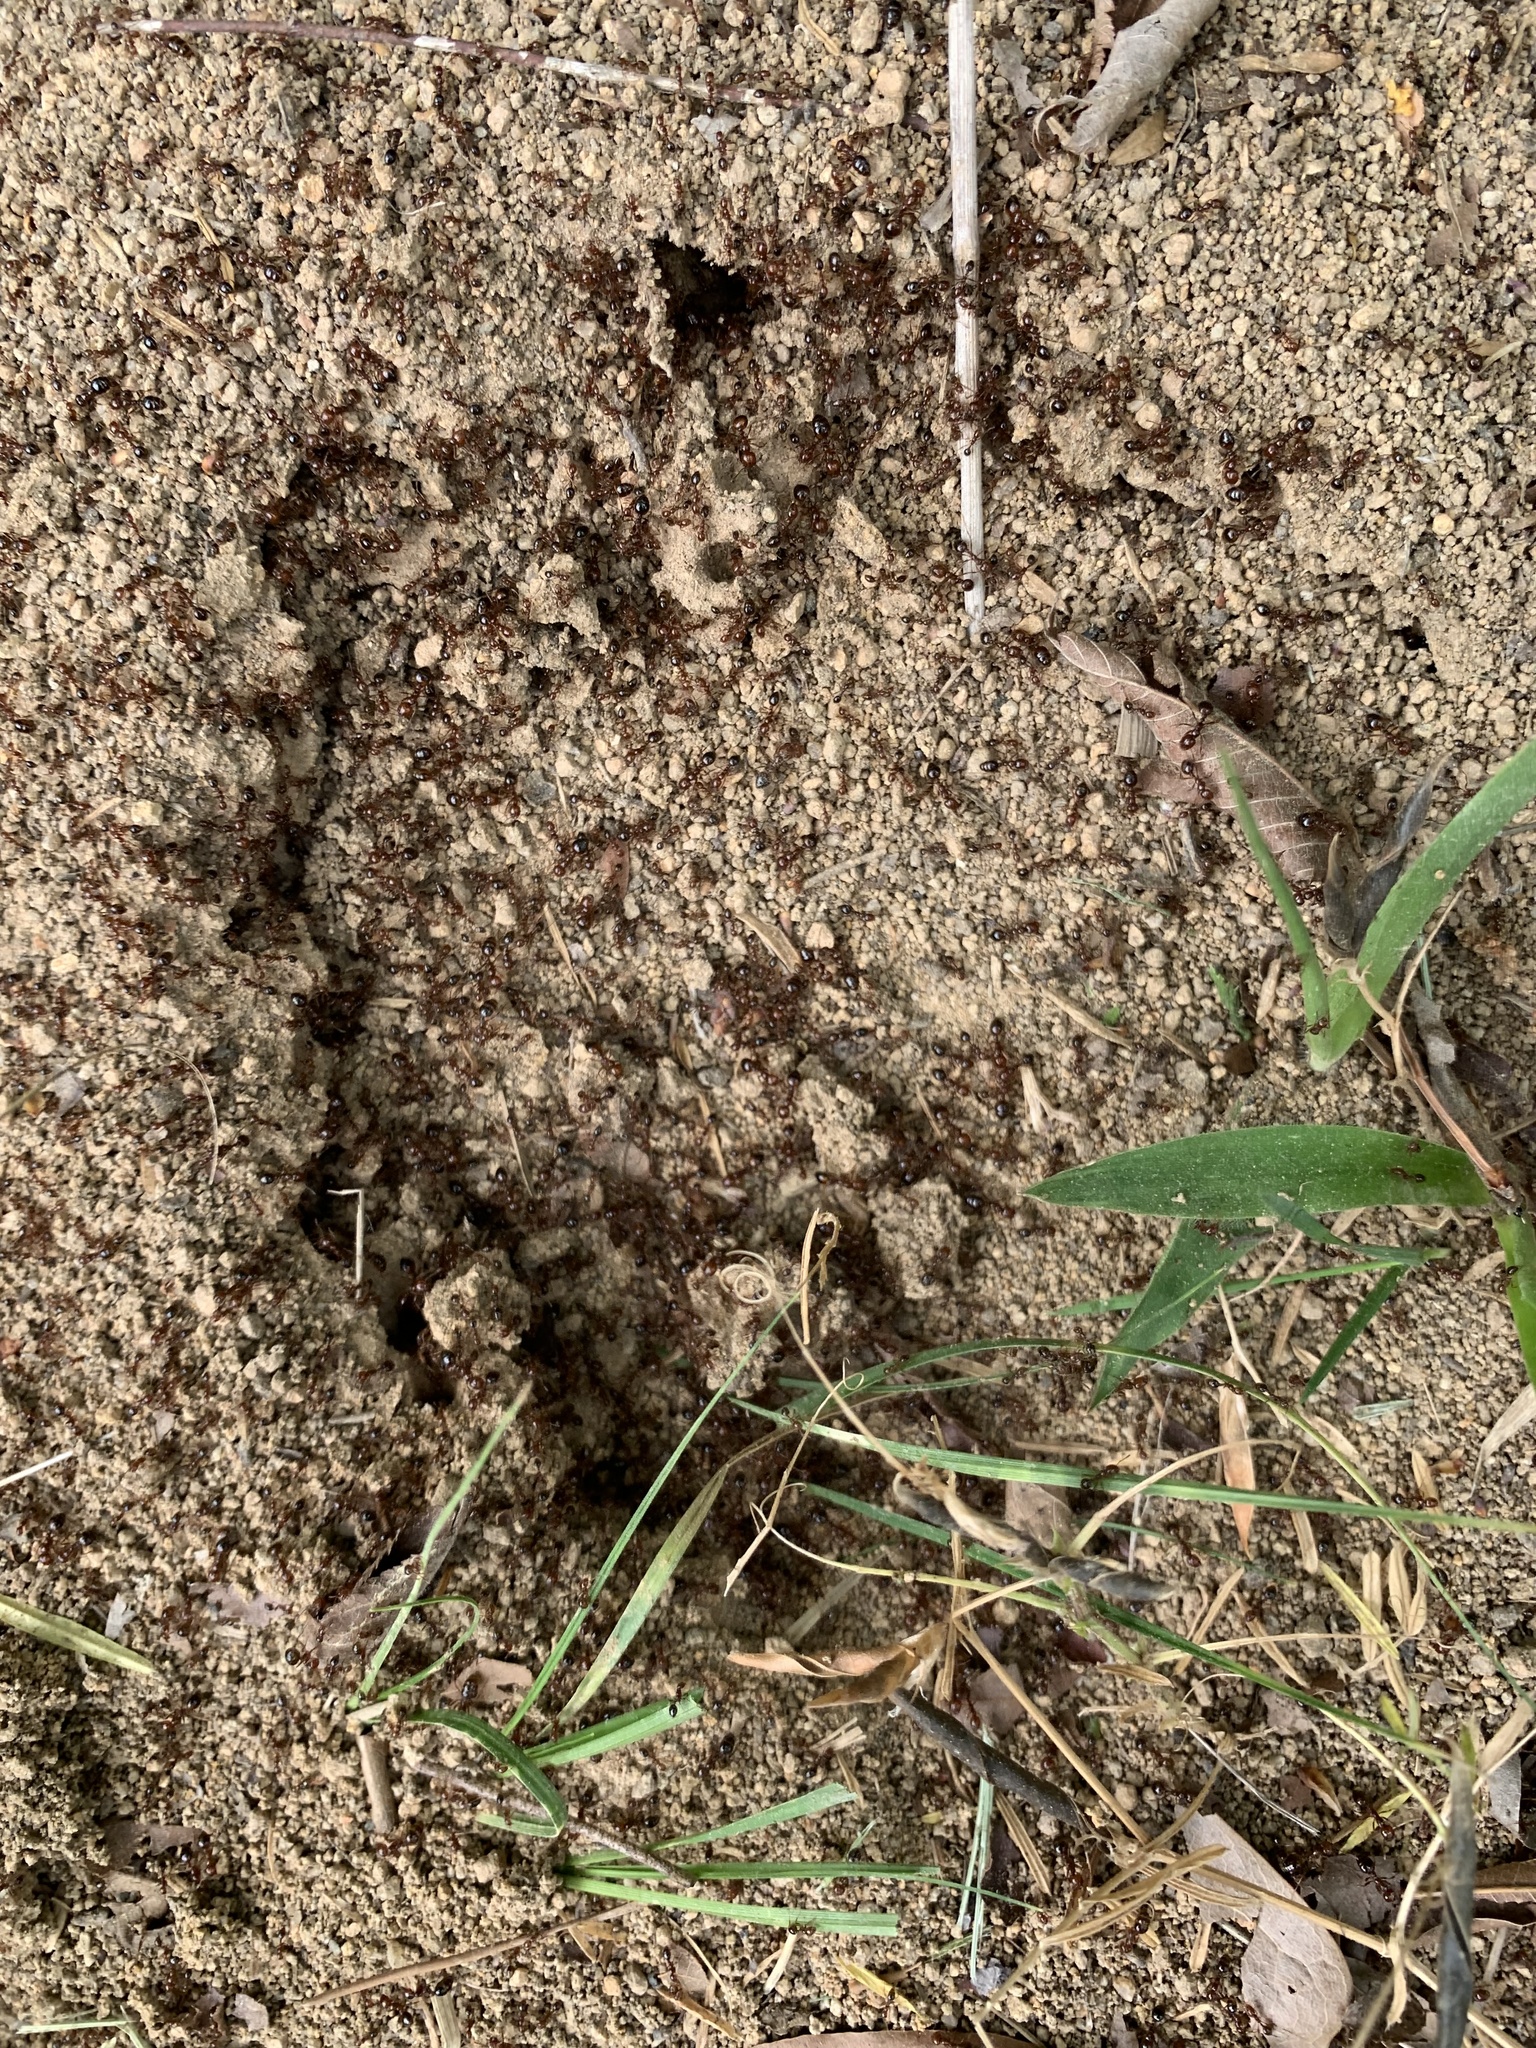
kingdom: Animalia
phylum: Arthropoda
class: Insecta
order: Hymenoptera
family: Formicidae
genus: Solenopsis
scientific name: Solenopsis invicta
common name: Red imported fire ant
